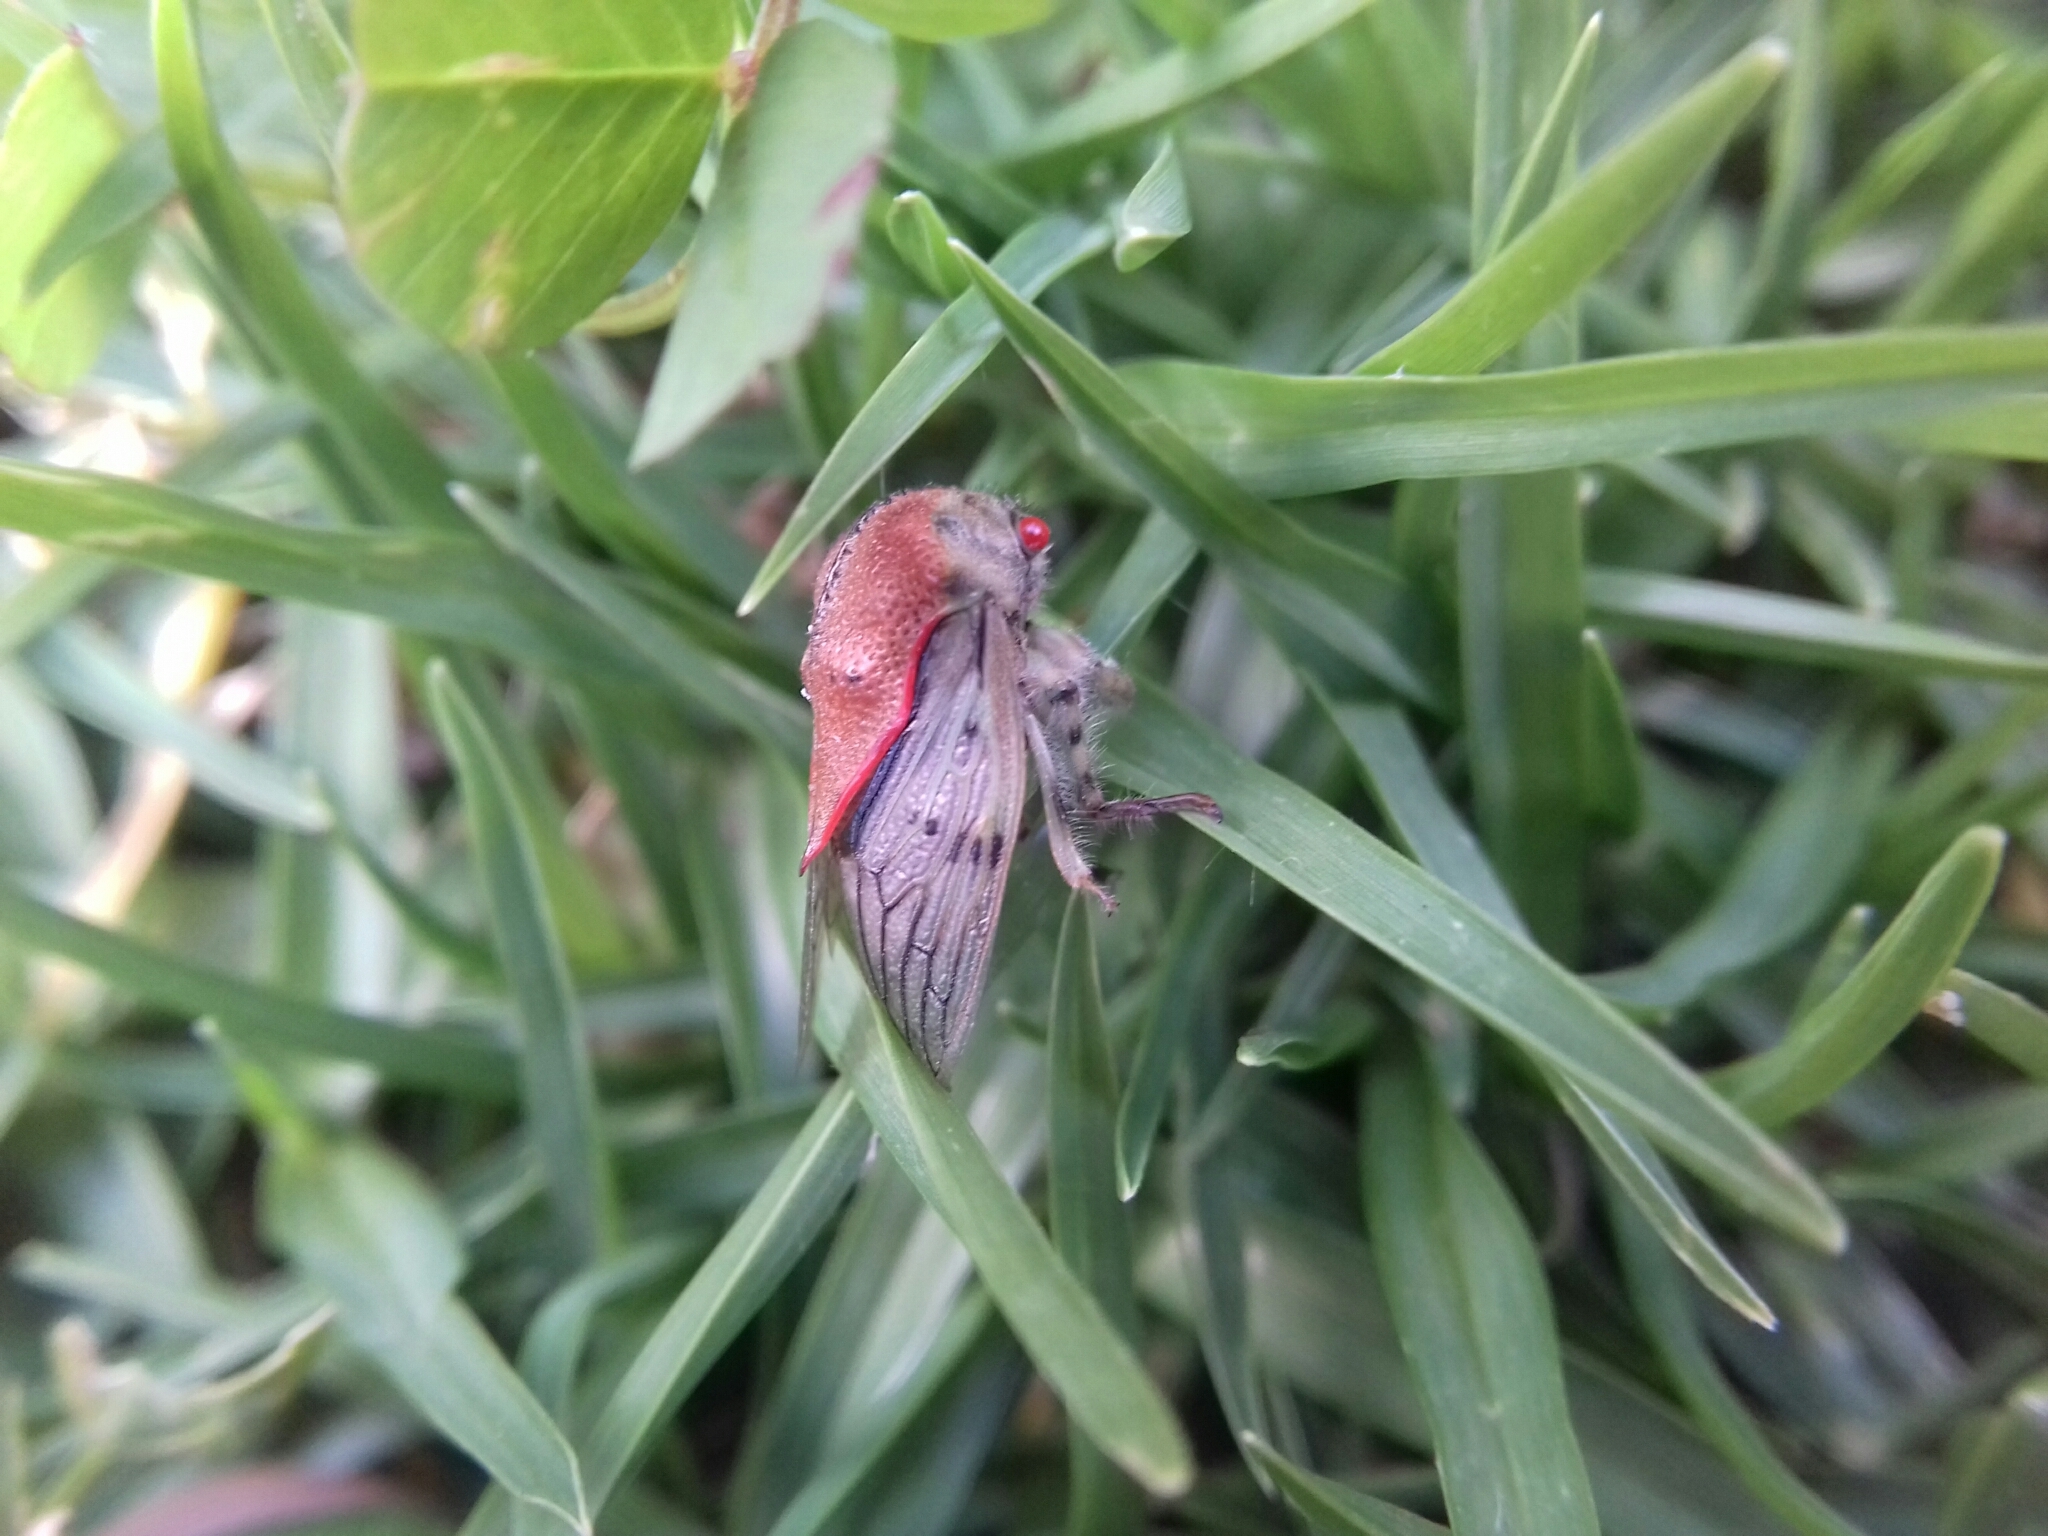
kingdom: Animalia
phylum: Arthropoda
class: Insecta
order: Hemiptera
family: Membracidae
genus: Metcalfiella
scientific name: Metcalfiella monograma
